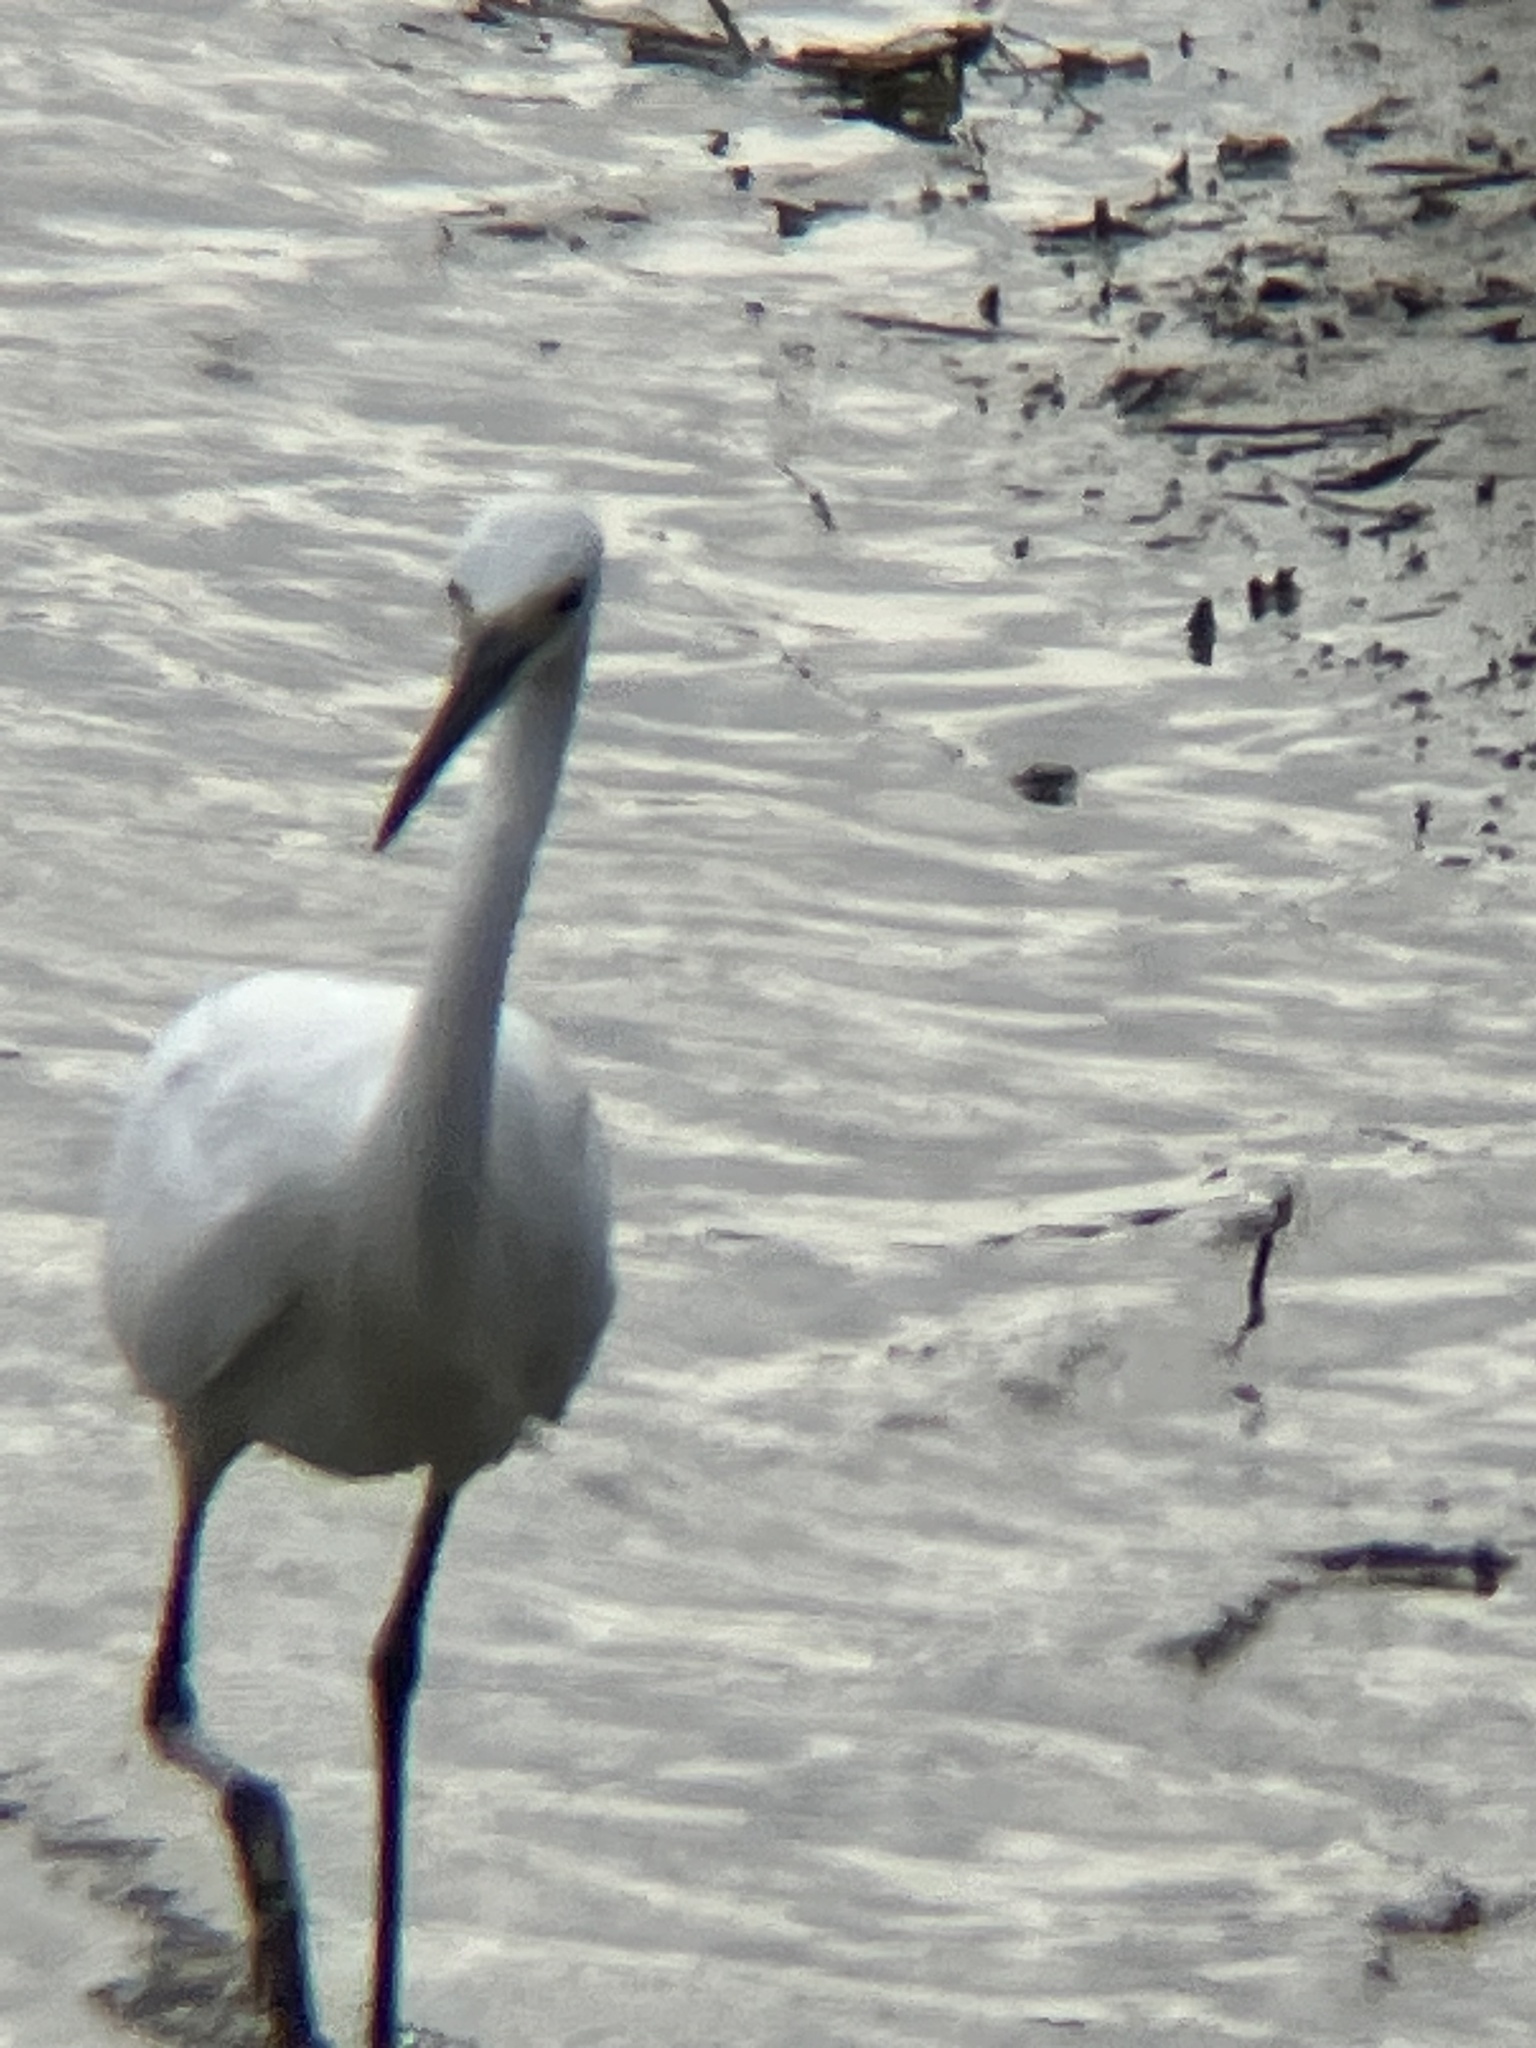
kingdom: Animalia
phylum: Chordata
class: Aves
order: Pelecaniformes
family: Ardeidae
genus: Egretta
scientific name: Egretta garzetta
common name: Little egret
